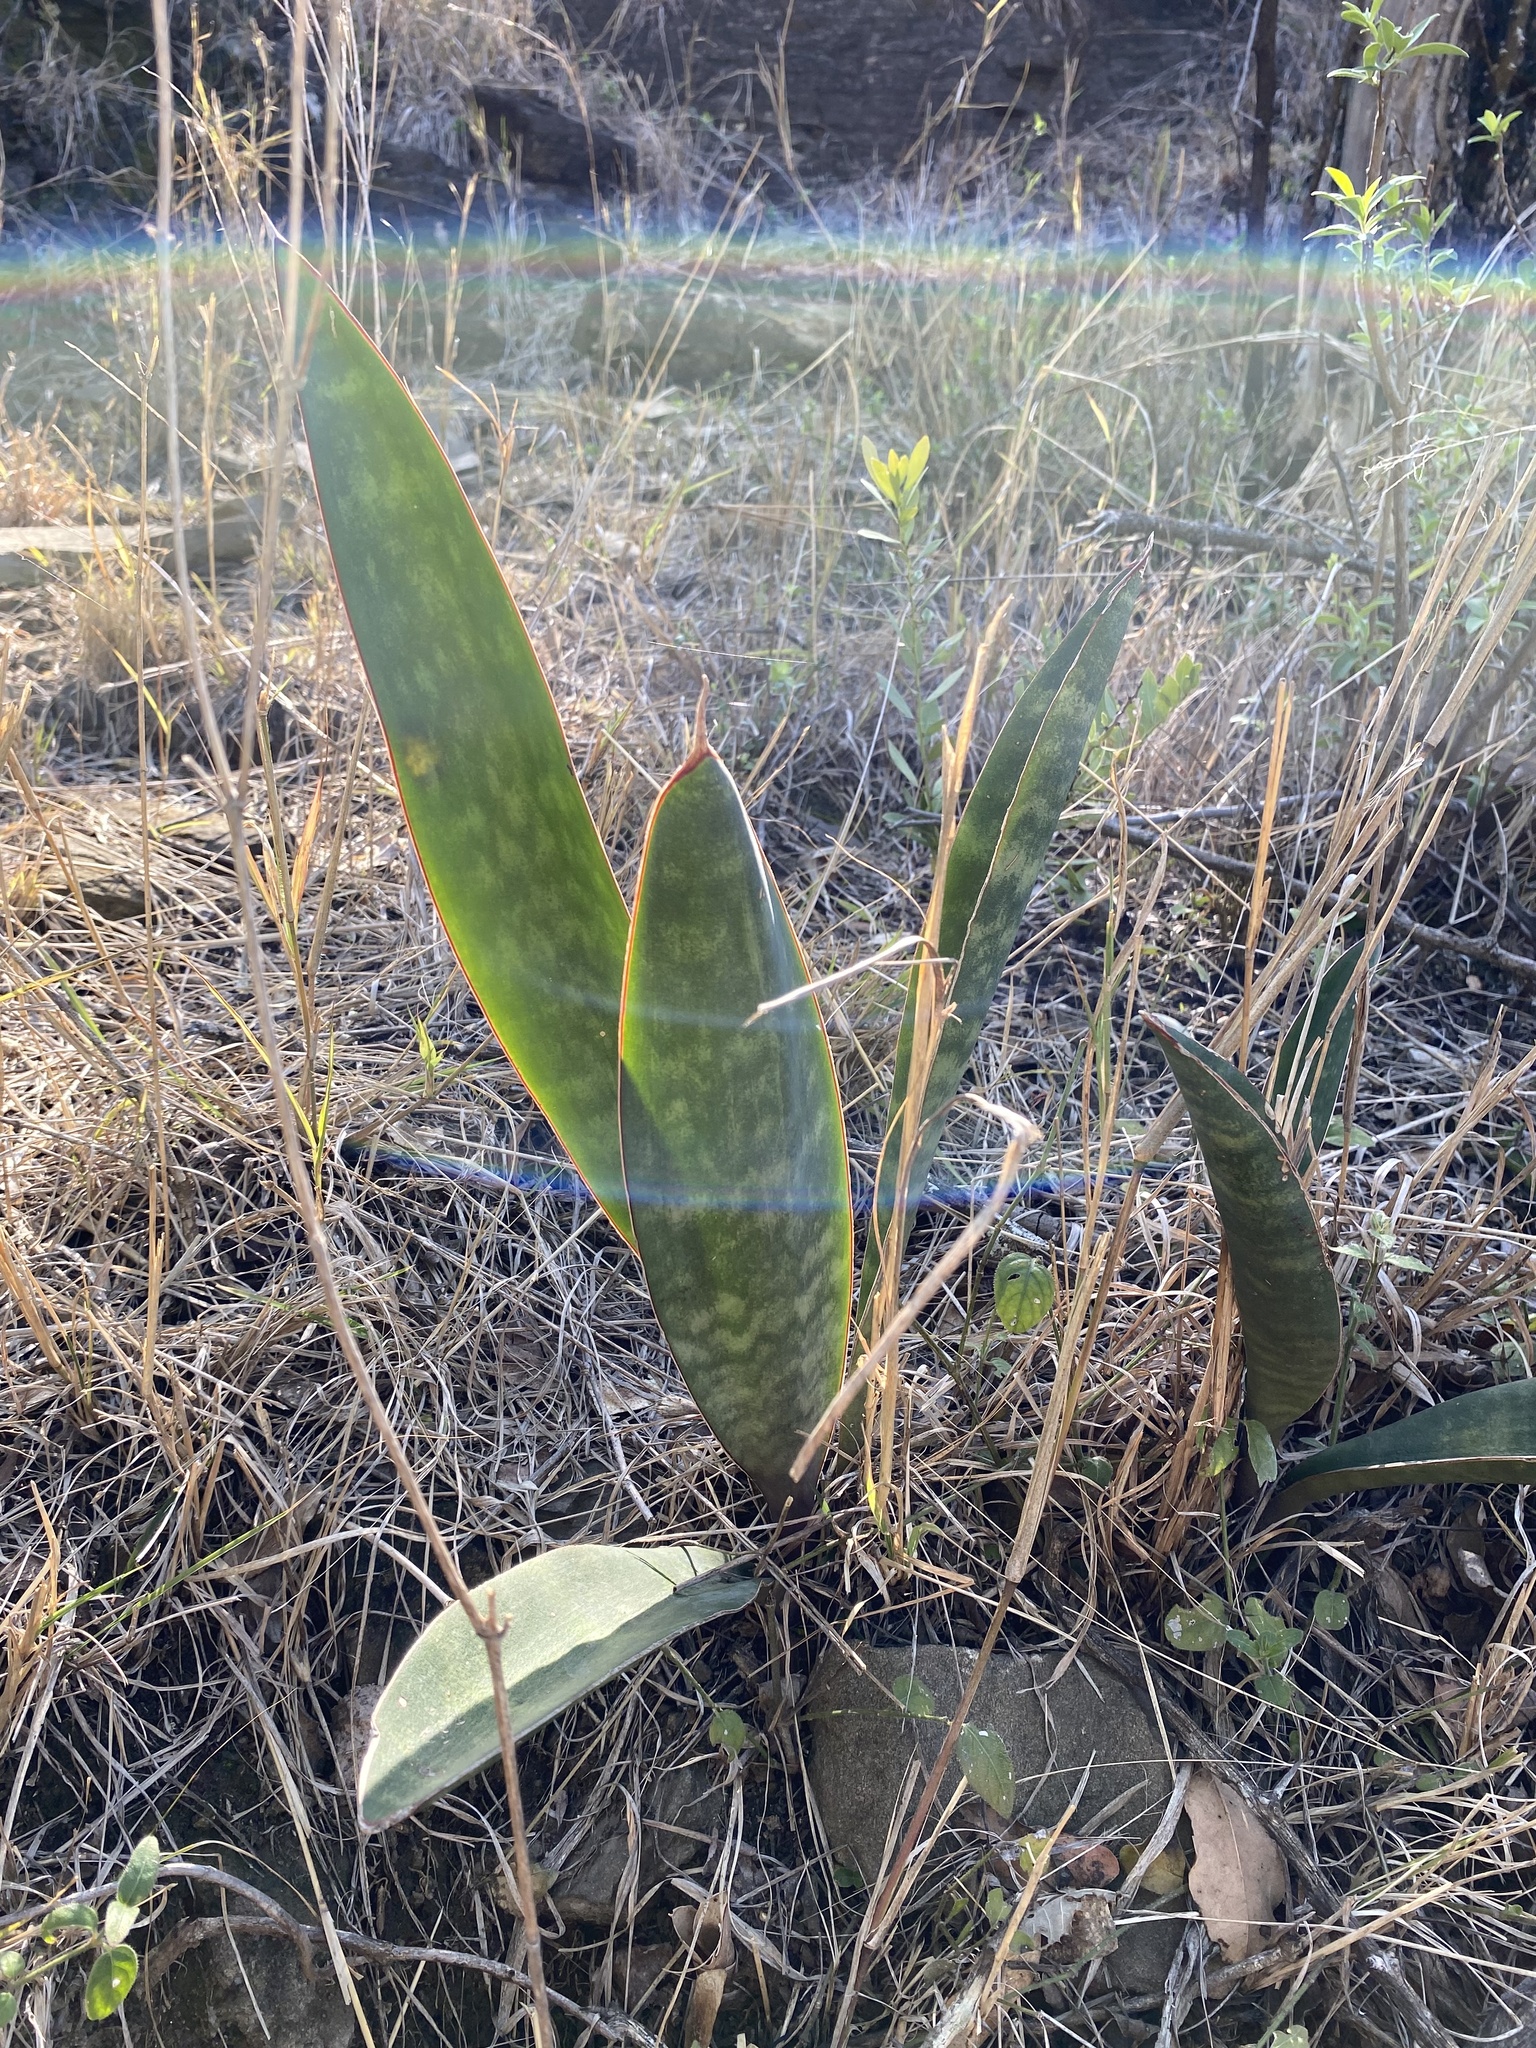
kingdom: Plantae
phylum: Tracheophyta
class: Liliopsida
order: Asparagales
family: Asparagaceae
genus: Dracaena
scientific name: Dracaena hyacinthoides
